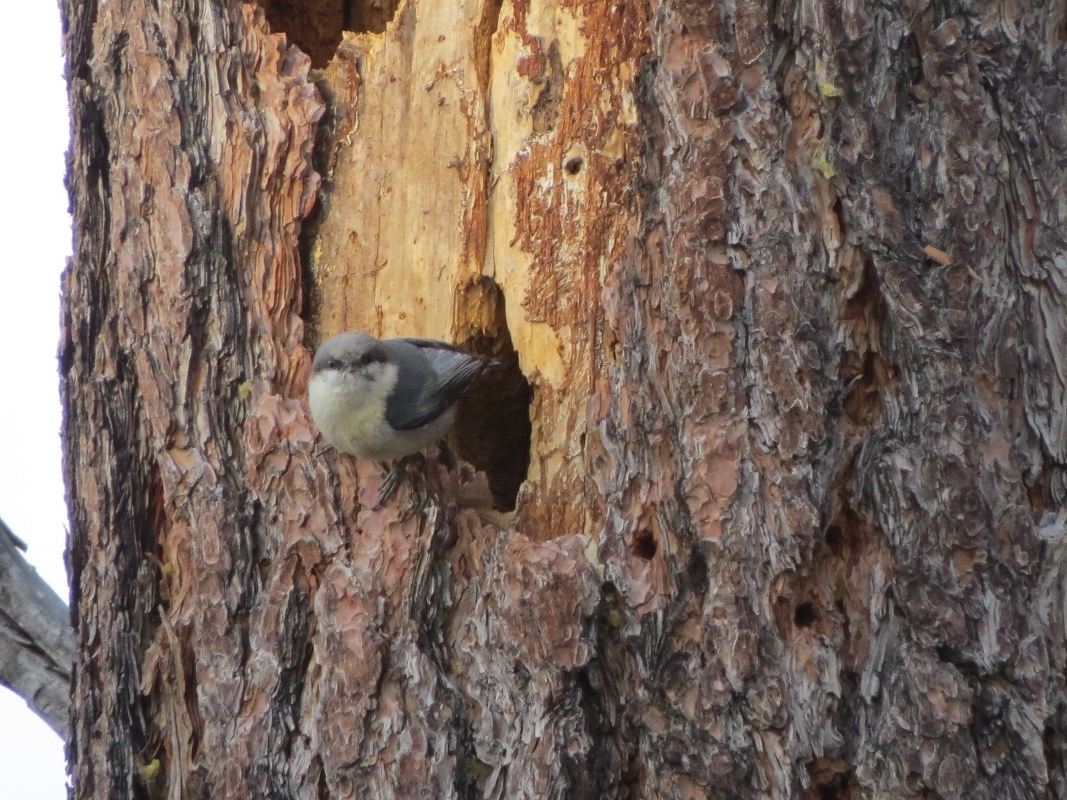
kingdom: Animalia
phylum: Chordata
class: Aves
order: Passeriformes
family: Sittidae
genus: Sitta
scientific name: Sitta pygmaea
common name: Pygmy nuthatch
